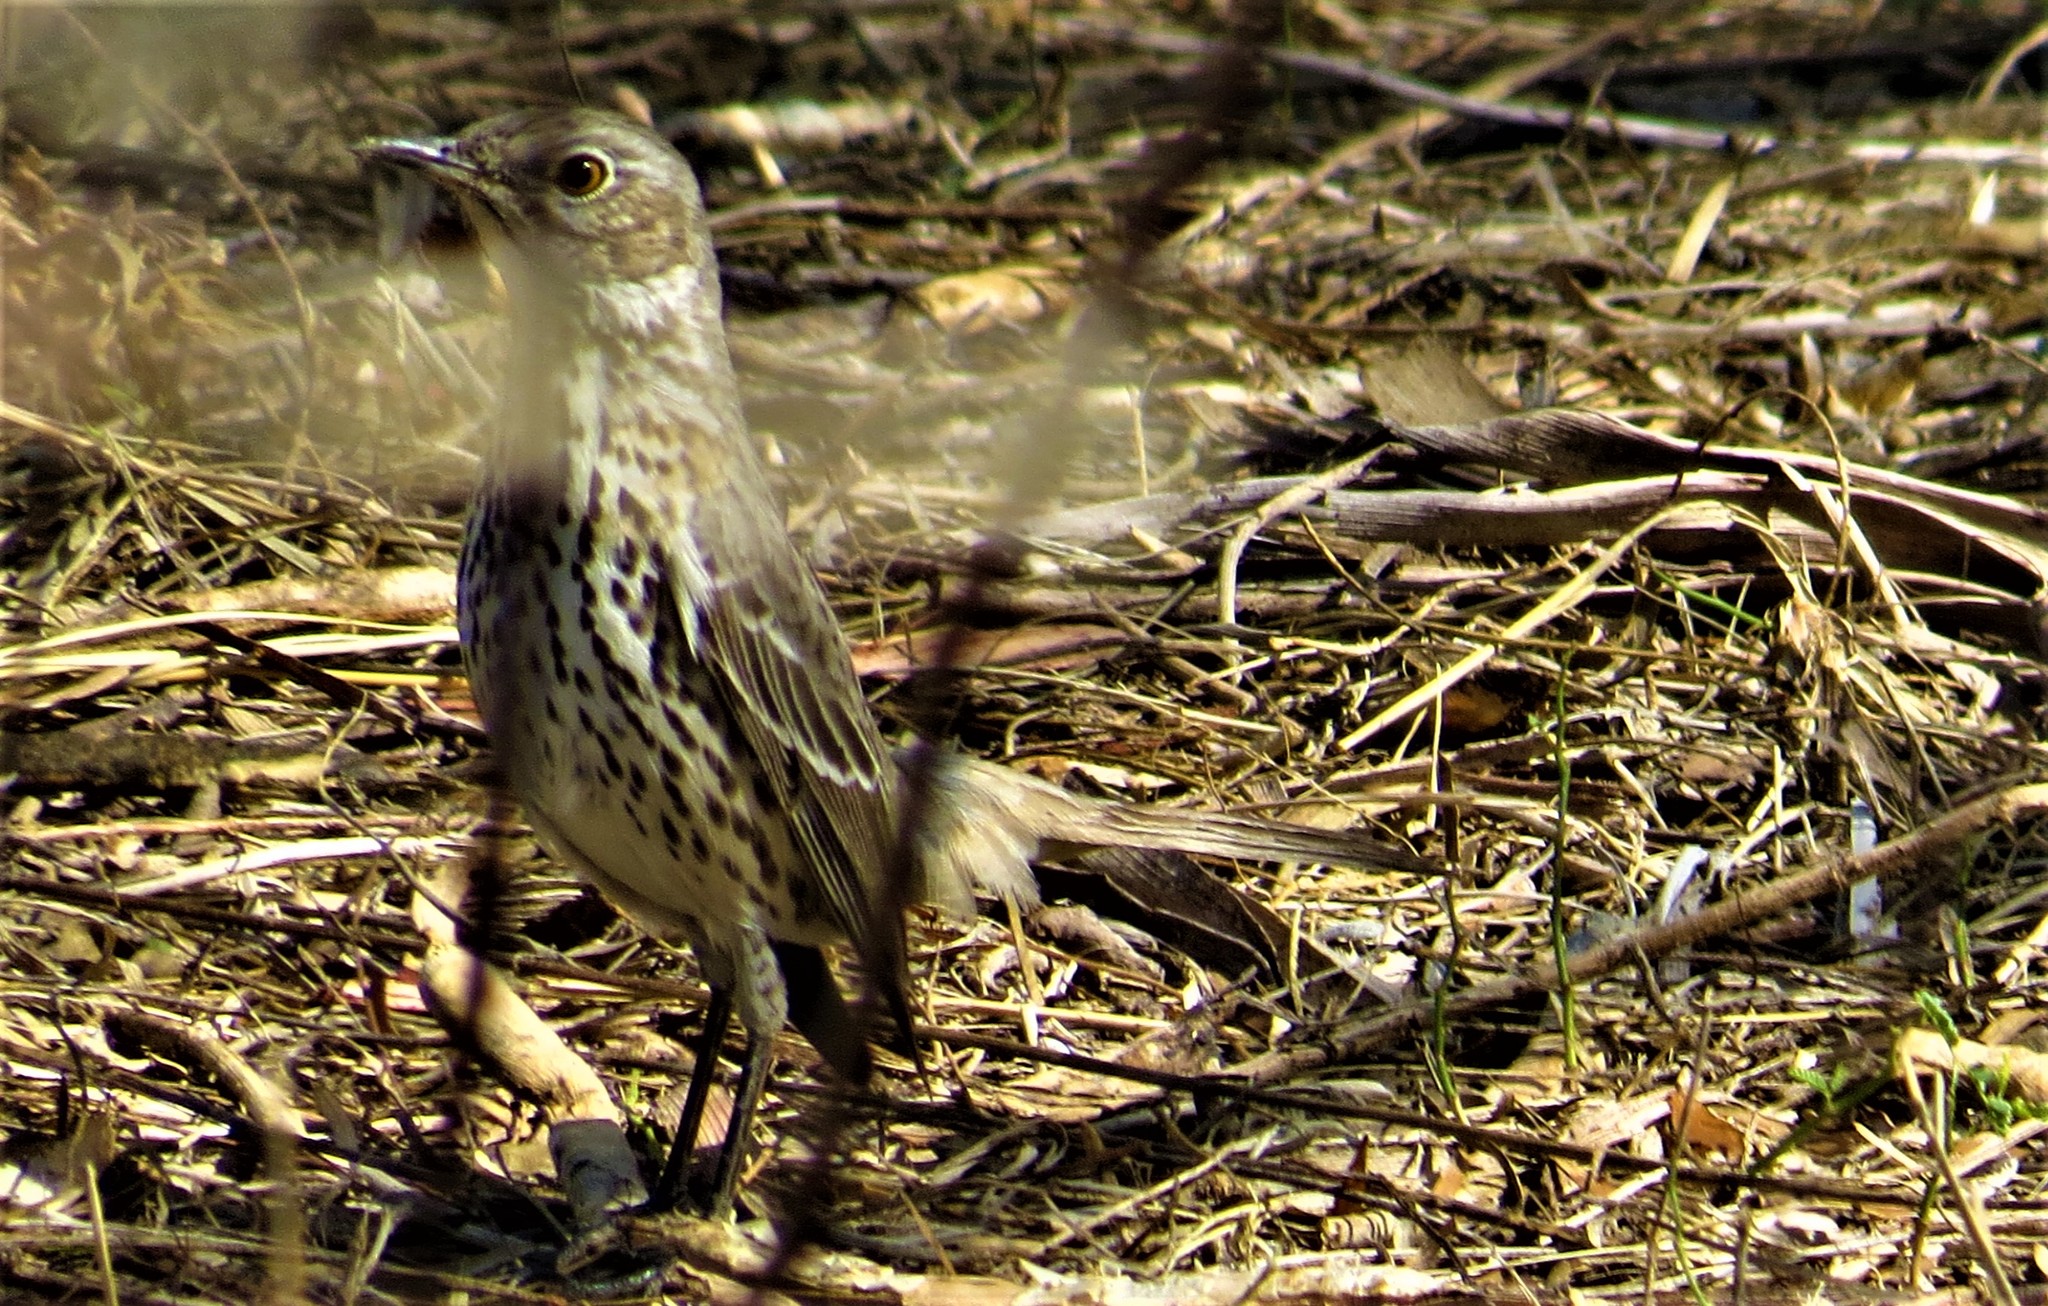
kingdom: Animalia
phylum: Chordata
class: Aves
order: Passeriformes
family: Mimidae
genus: Oreoscoptes
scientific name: Oreoscoptes montanus
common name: Sage thrasher
